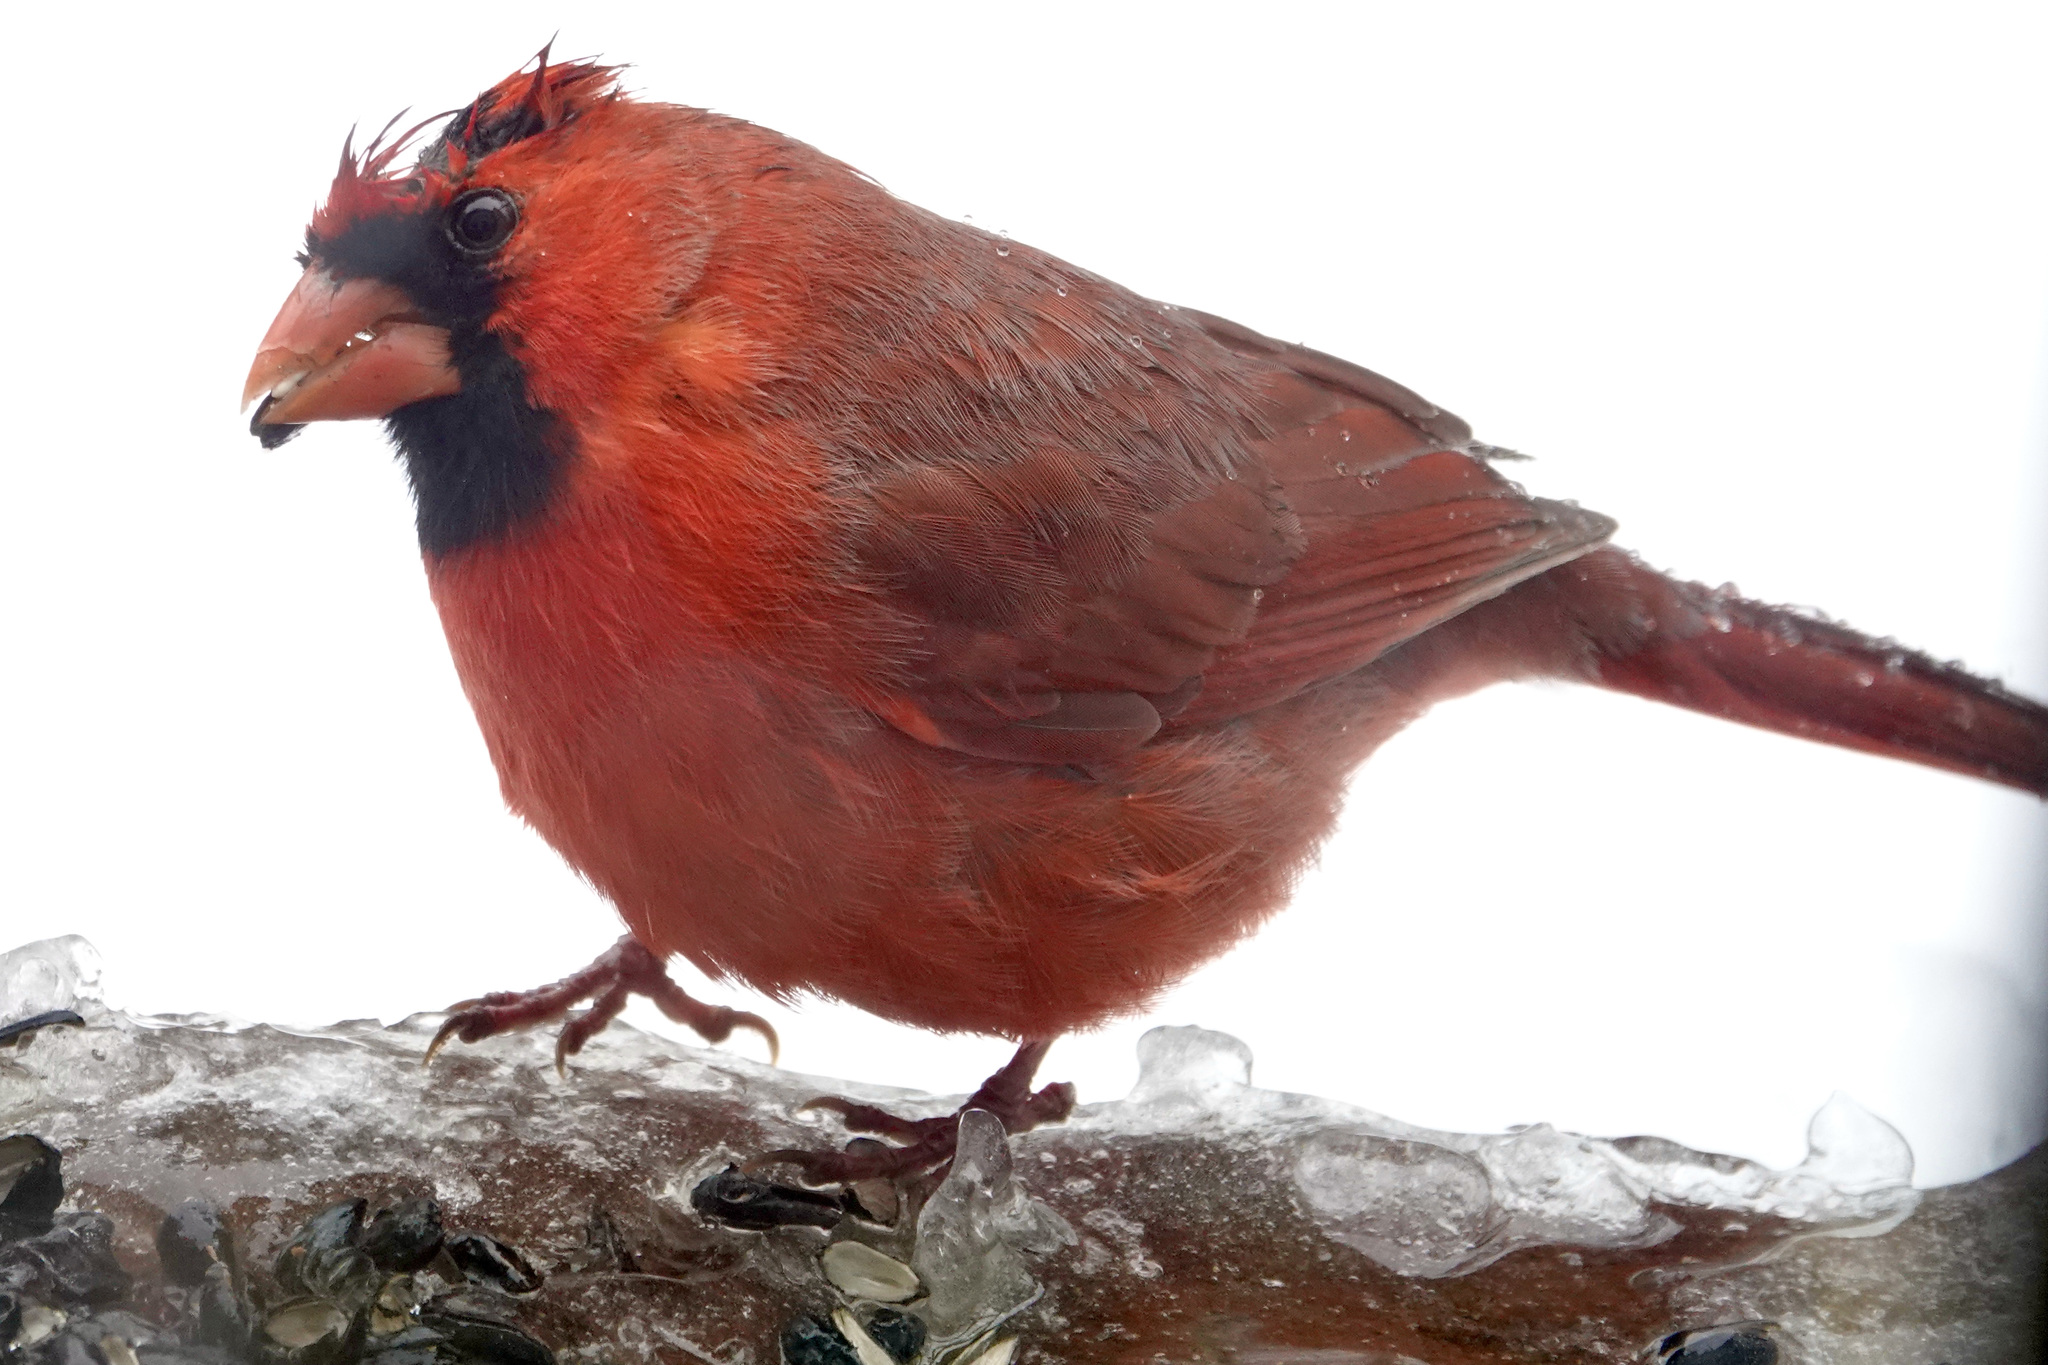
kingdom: Animalia
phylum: Chordata
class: Aves
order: Passeriformes
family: Cardinalidae
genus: Cardinalis
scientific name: Cardinalis cardinalis
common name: Northern cardinal
